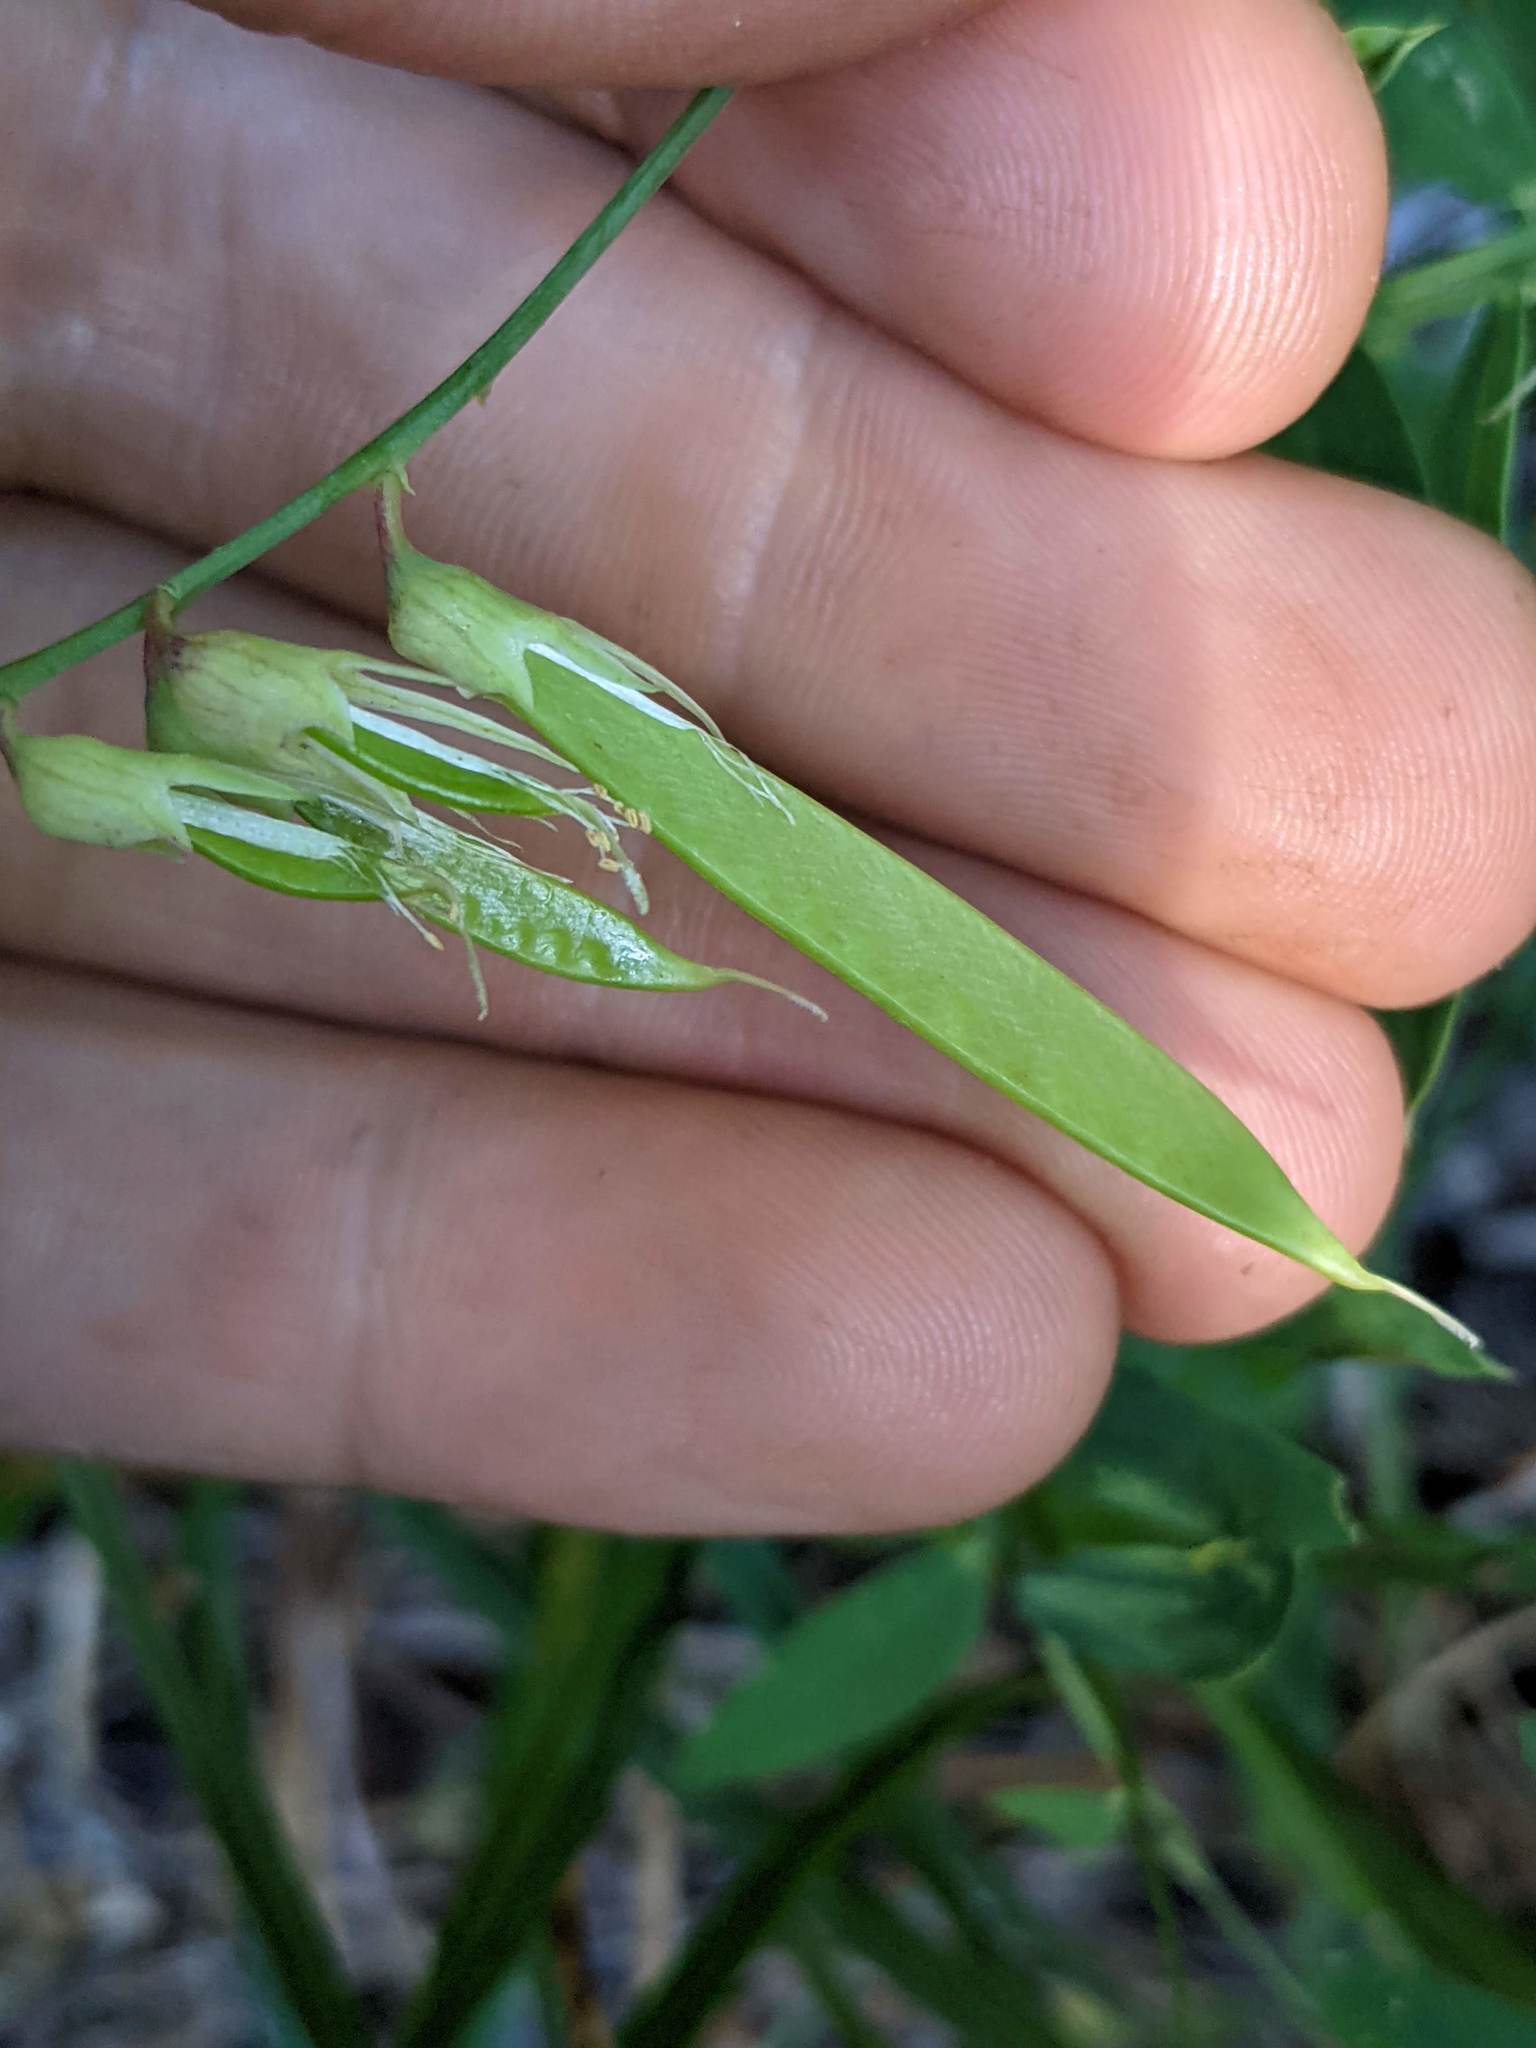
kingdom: Plantae
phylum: Tracheophyta
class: Magnoliopsida
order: Fabales
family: Fabaceae
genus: Lathyrus
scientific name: Lathyrus delnorticus
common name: Del norte-pea
